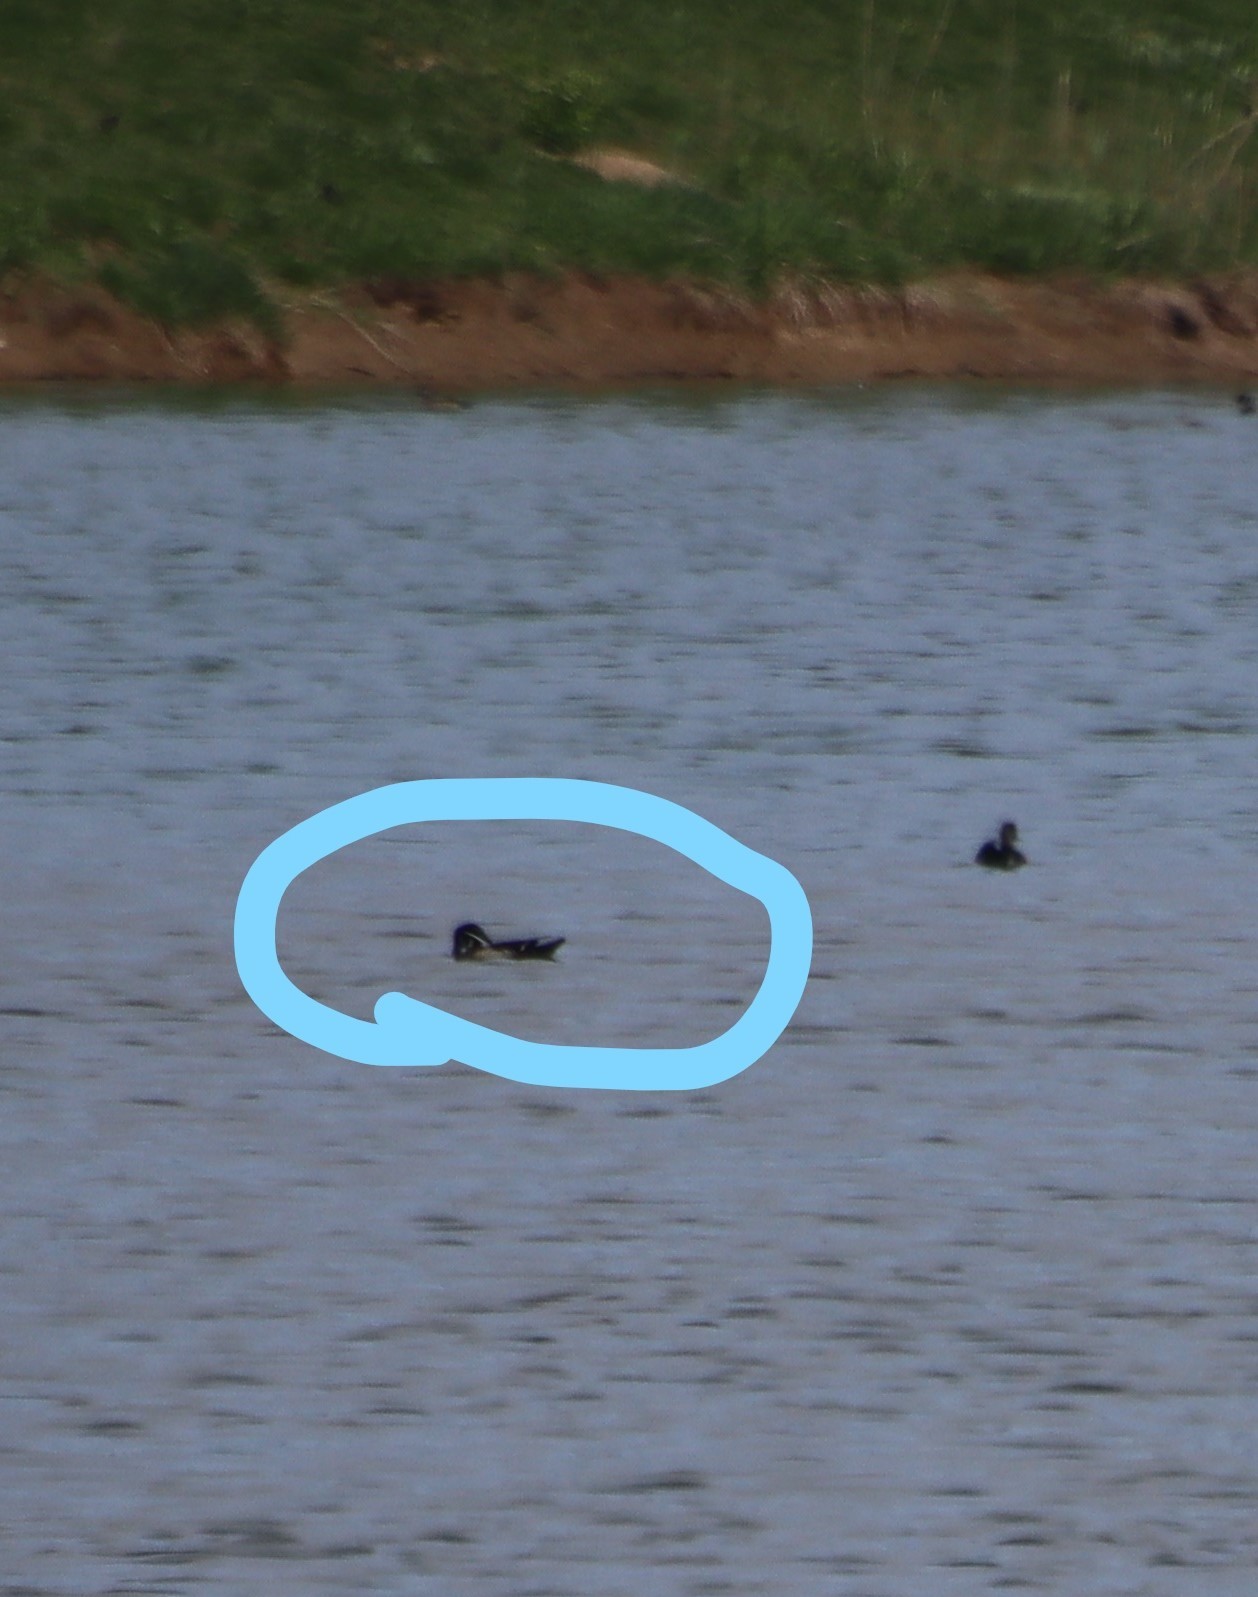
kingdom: Animalia
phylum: Chordata
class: Aves
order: Anseriformes
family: Anatidae
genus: Aix
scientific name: Aix sponsa
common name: Wood duck
